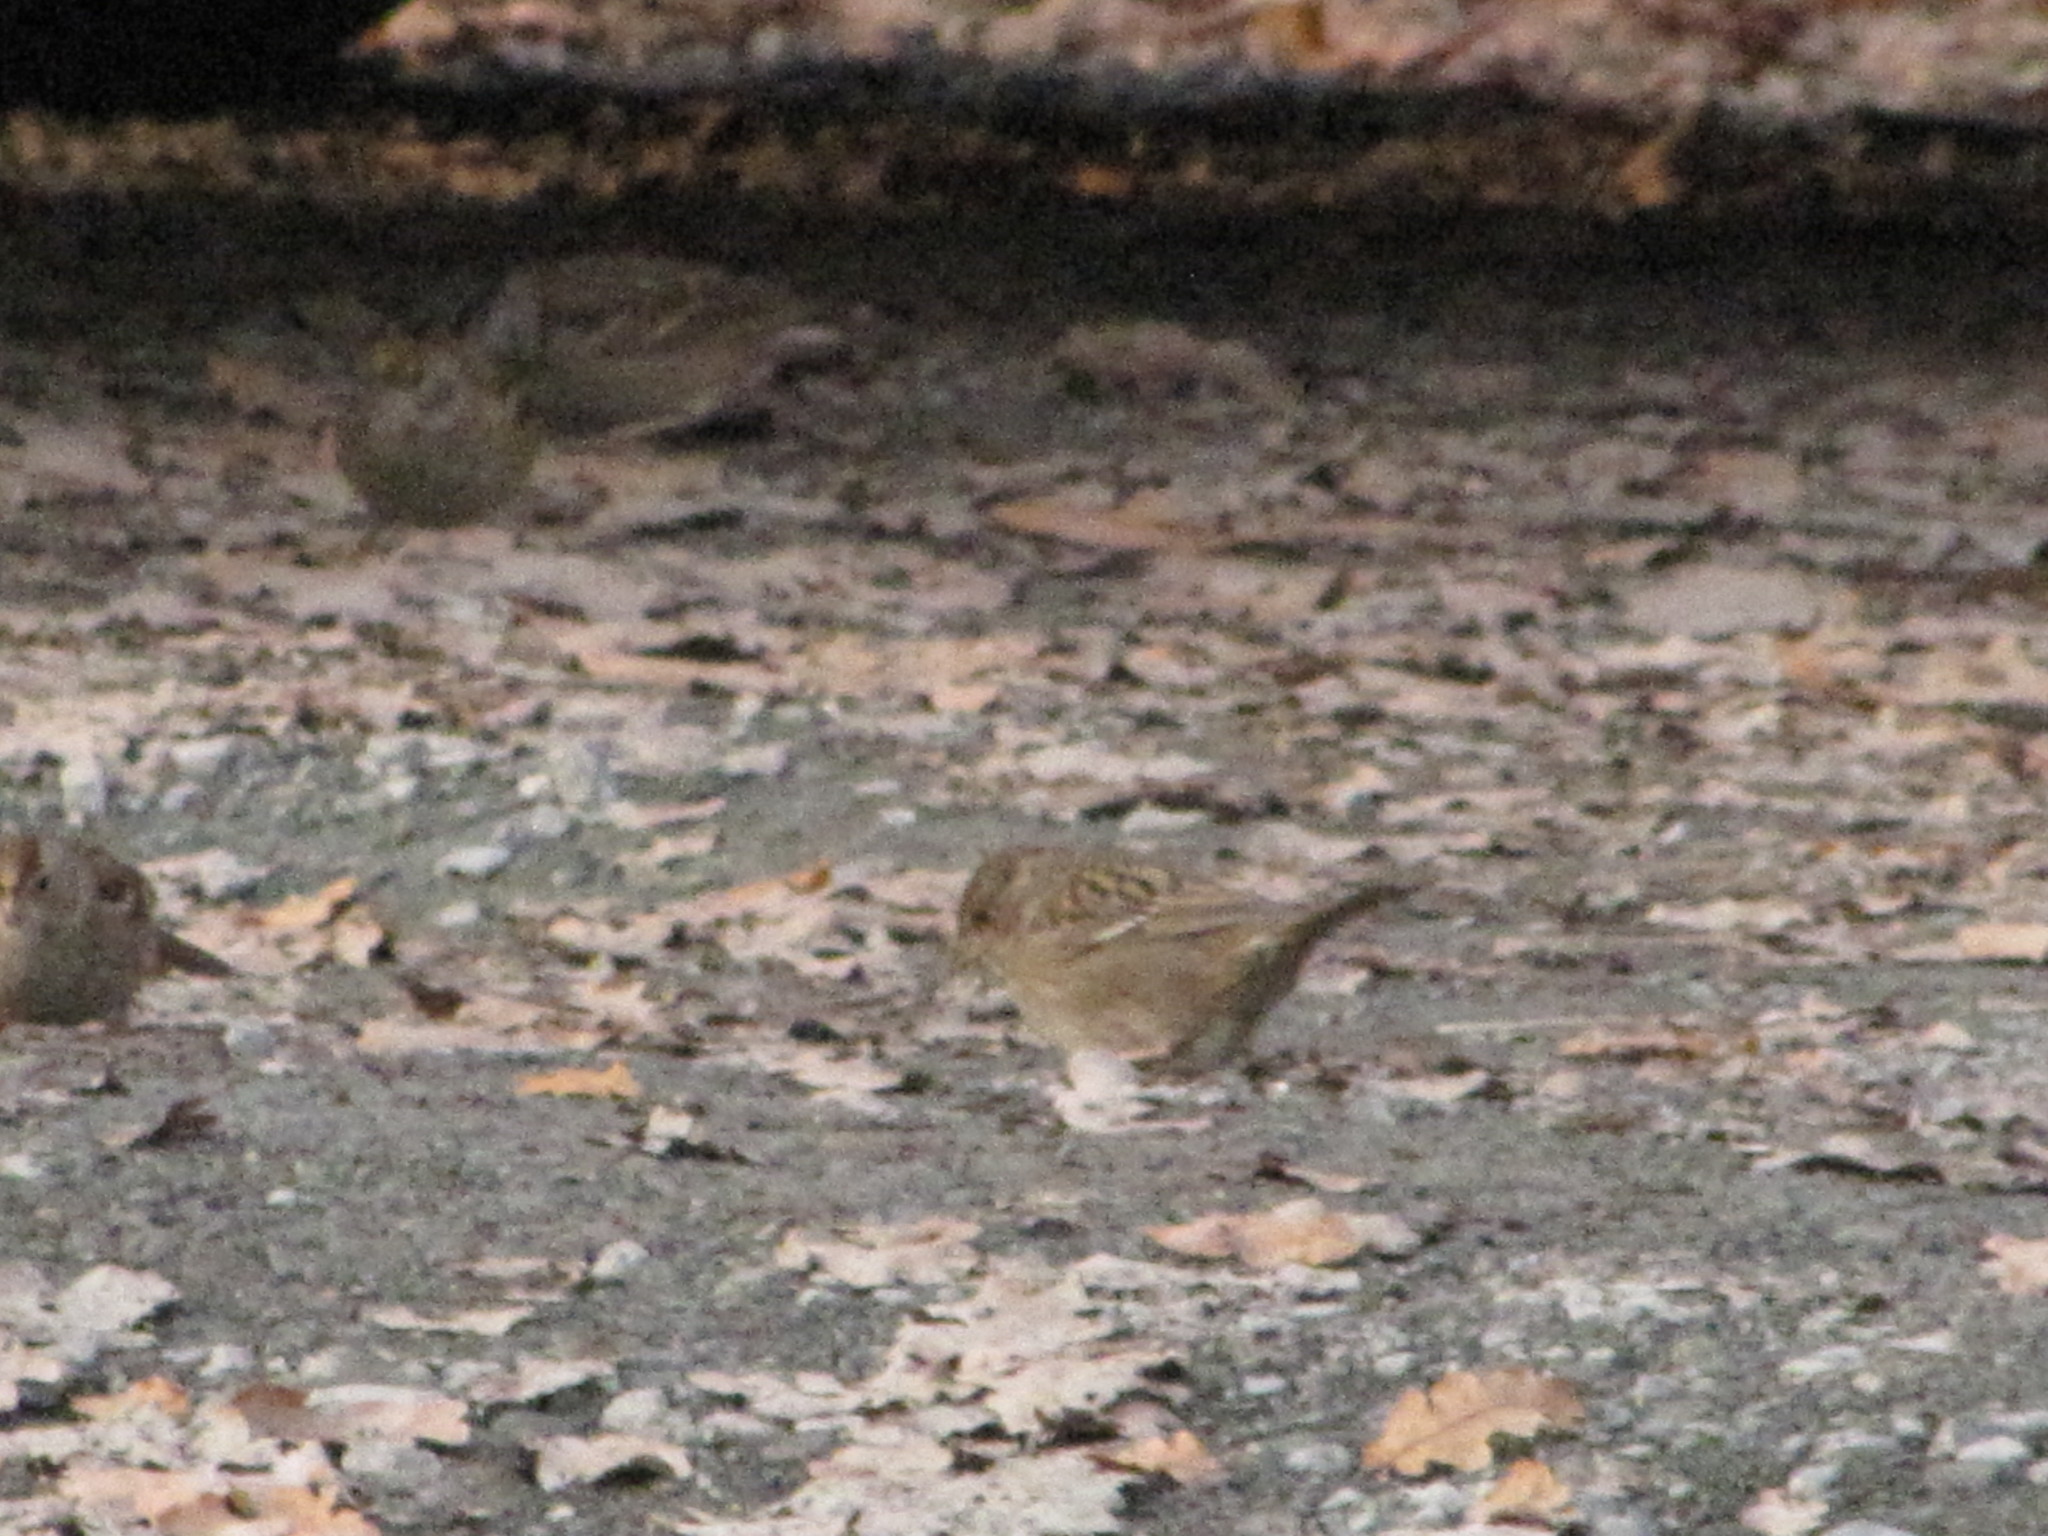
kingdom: Animalia
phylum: Chordata
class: Aves
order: Passeriformes
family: Passerellidae
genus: Zonotrichia
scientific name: Zonotrichia atricapilla
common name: Golden-crowned sparrow
